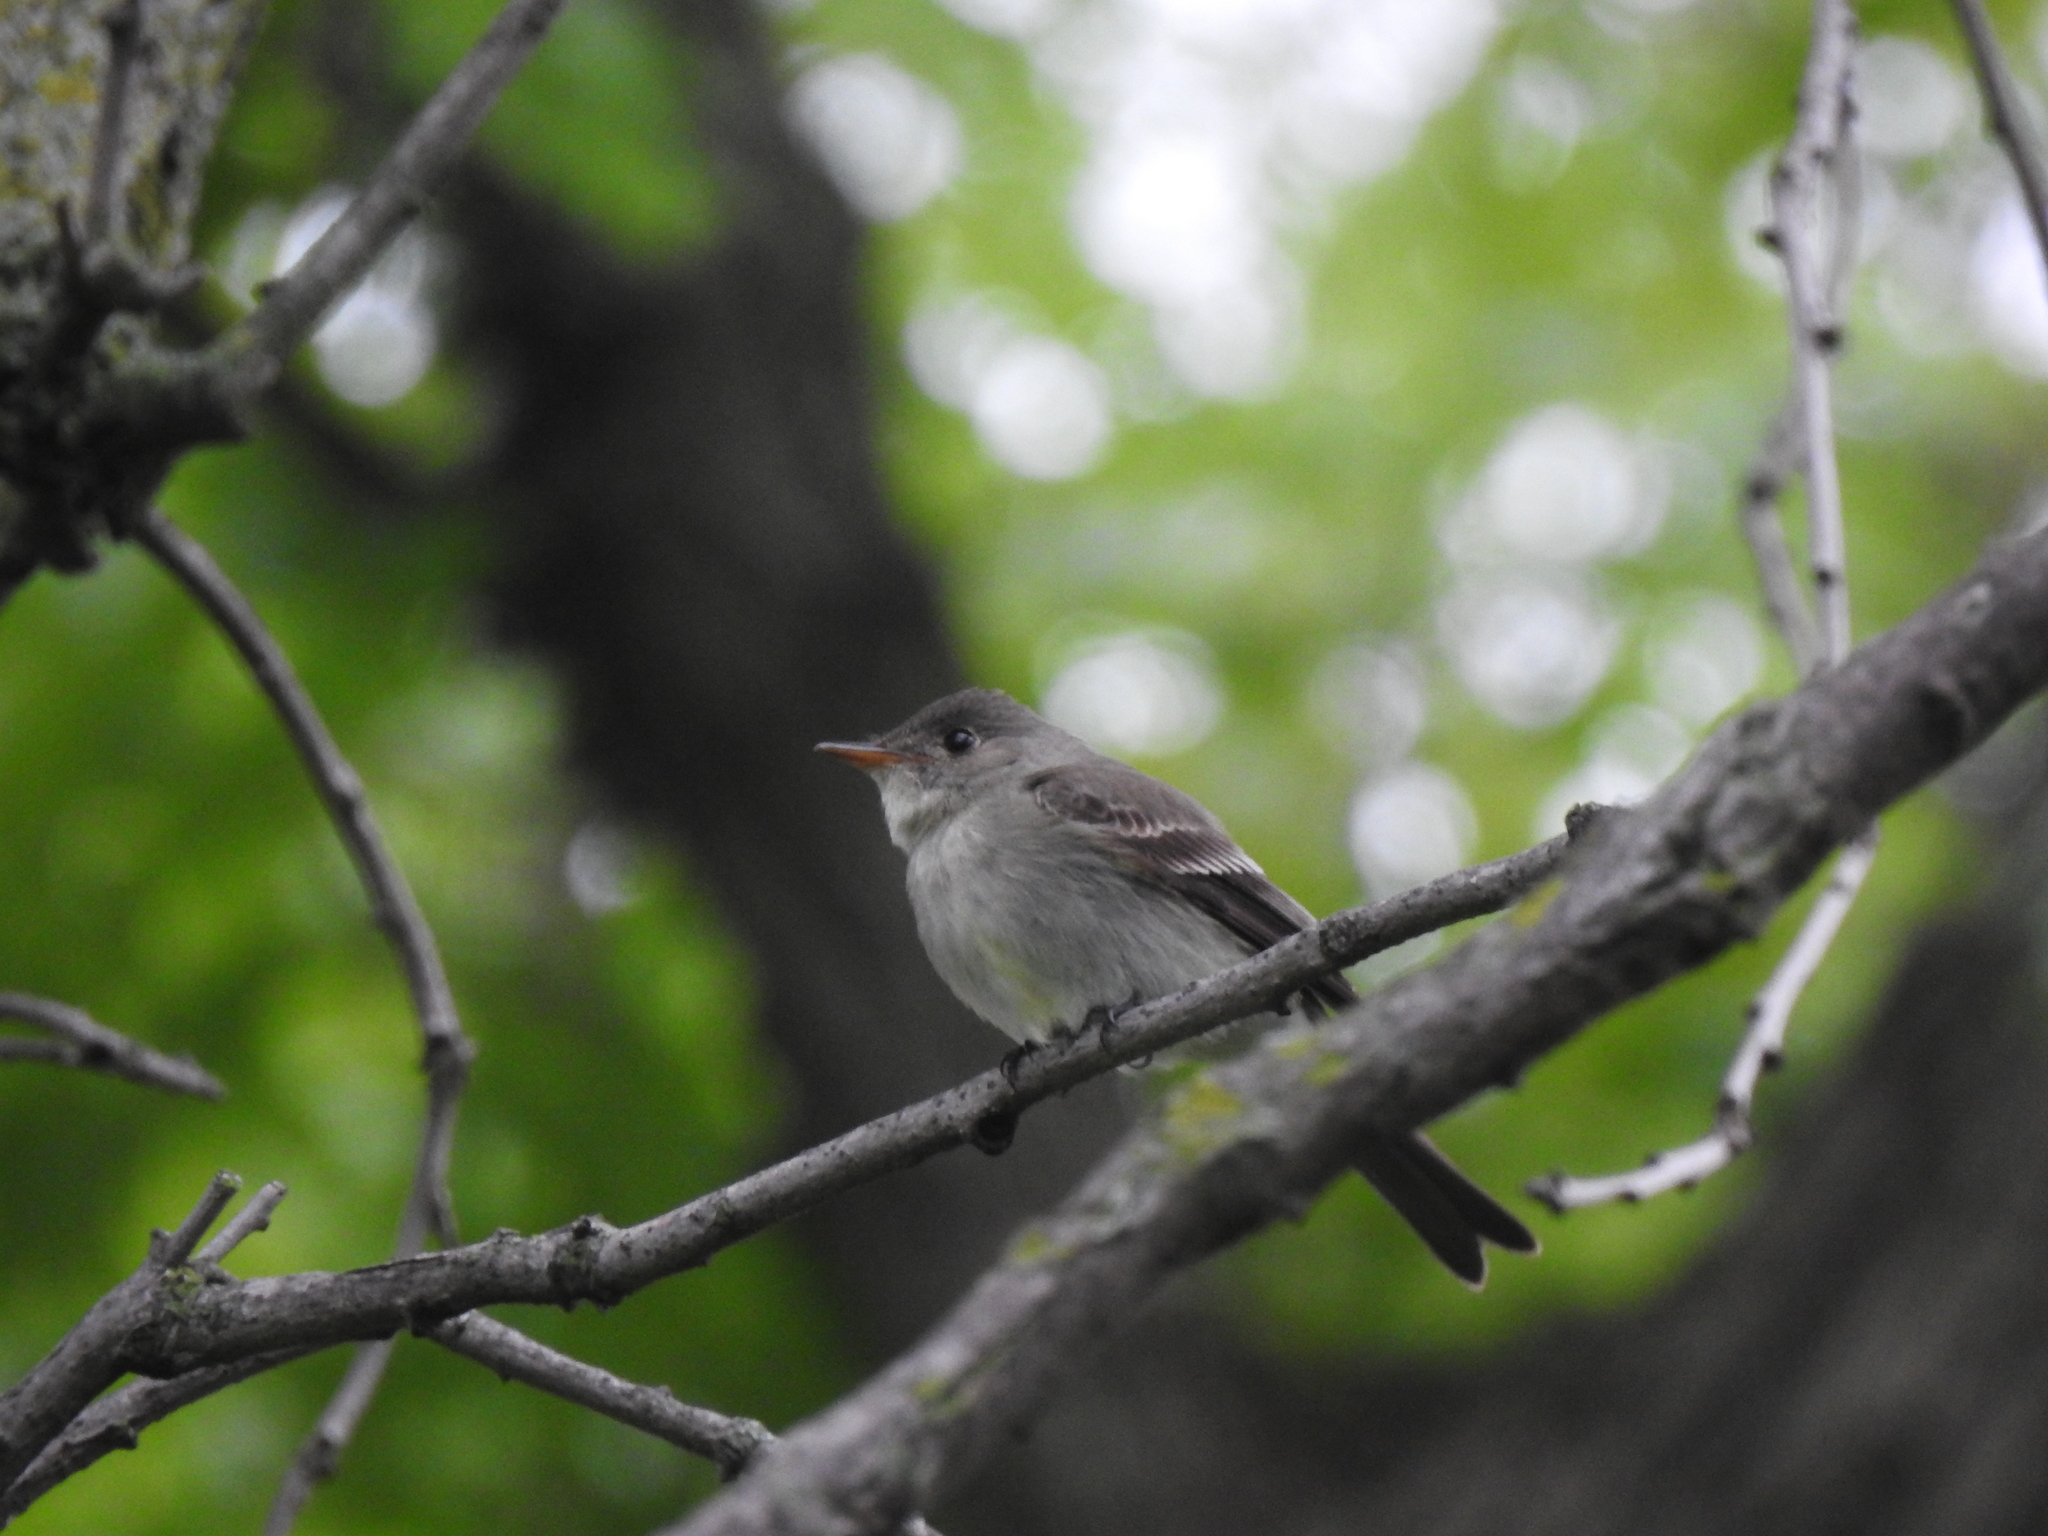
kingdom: Animalia
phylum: Chordata
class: Aves
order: Passeriformes
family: Tyrannidae
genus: Contopus
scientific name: Contopus virens
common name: Eastern wood-pewee
